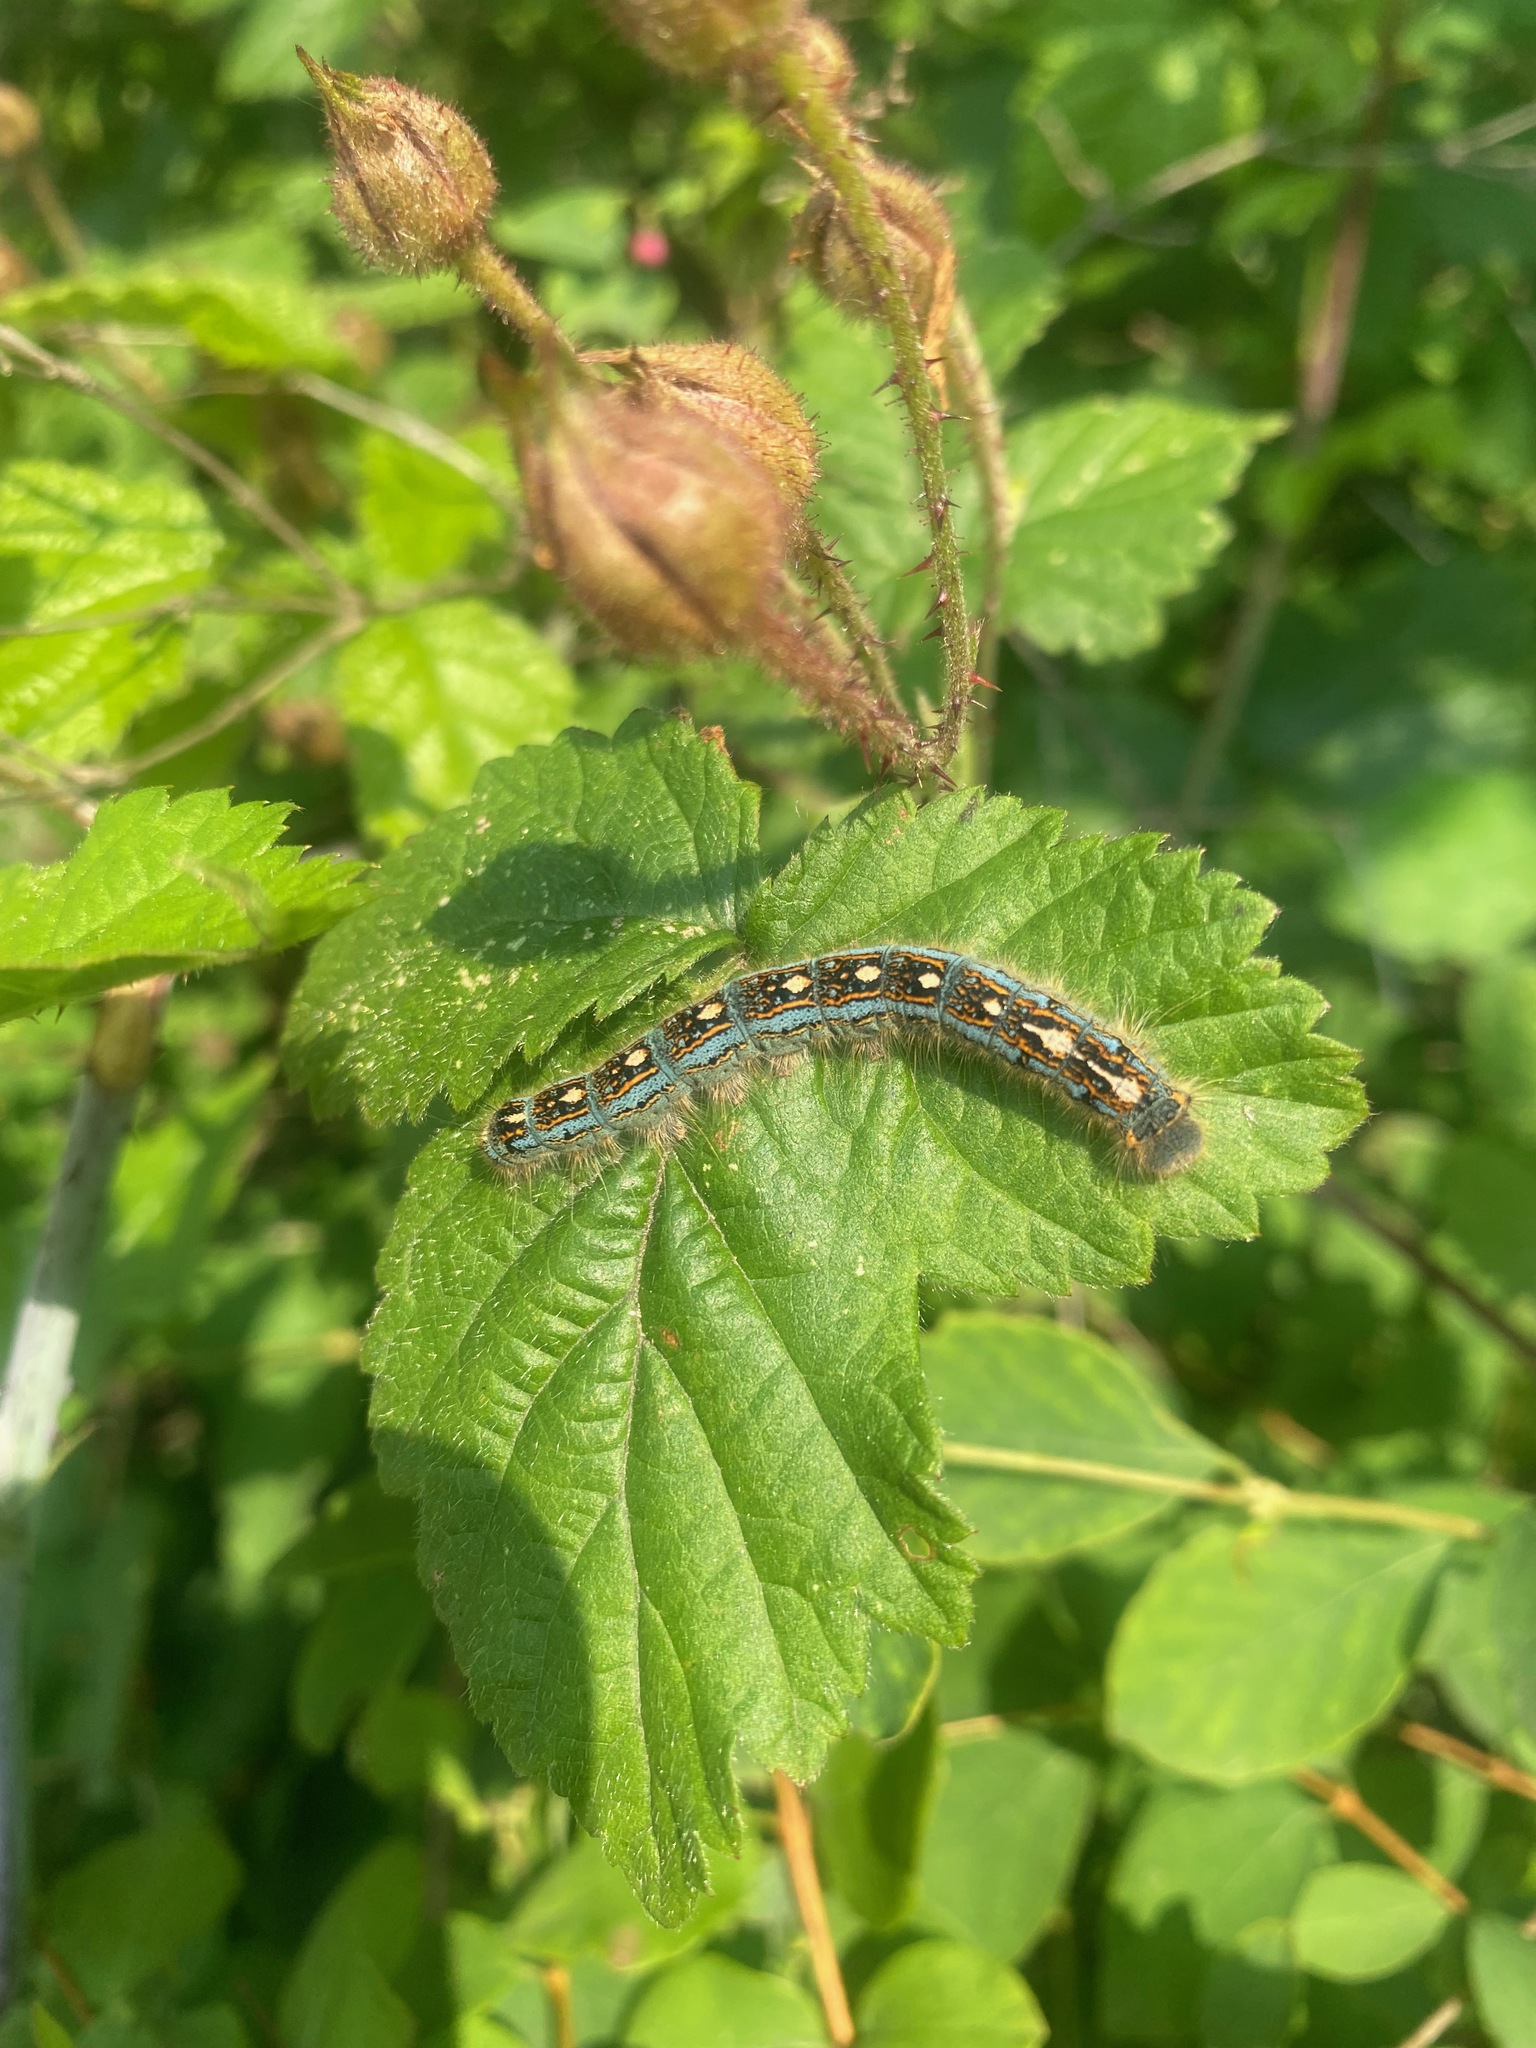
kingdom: Animalia
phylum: Arthropoda
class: Insecta
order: Lepidoptera
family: Lasiocampidae
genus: Malacosoma
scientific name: Malacosoma disstria
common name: Forest tent caterpillar
